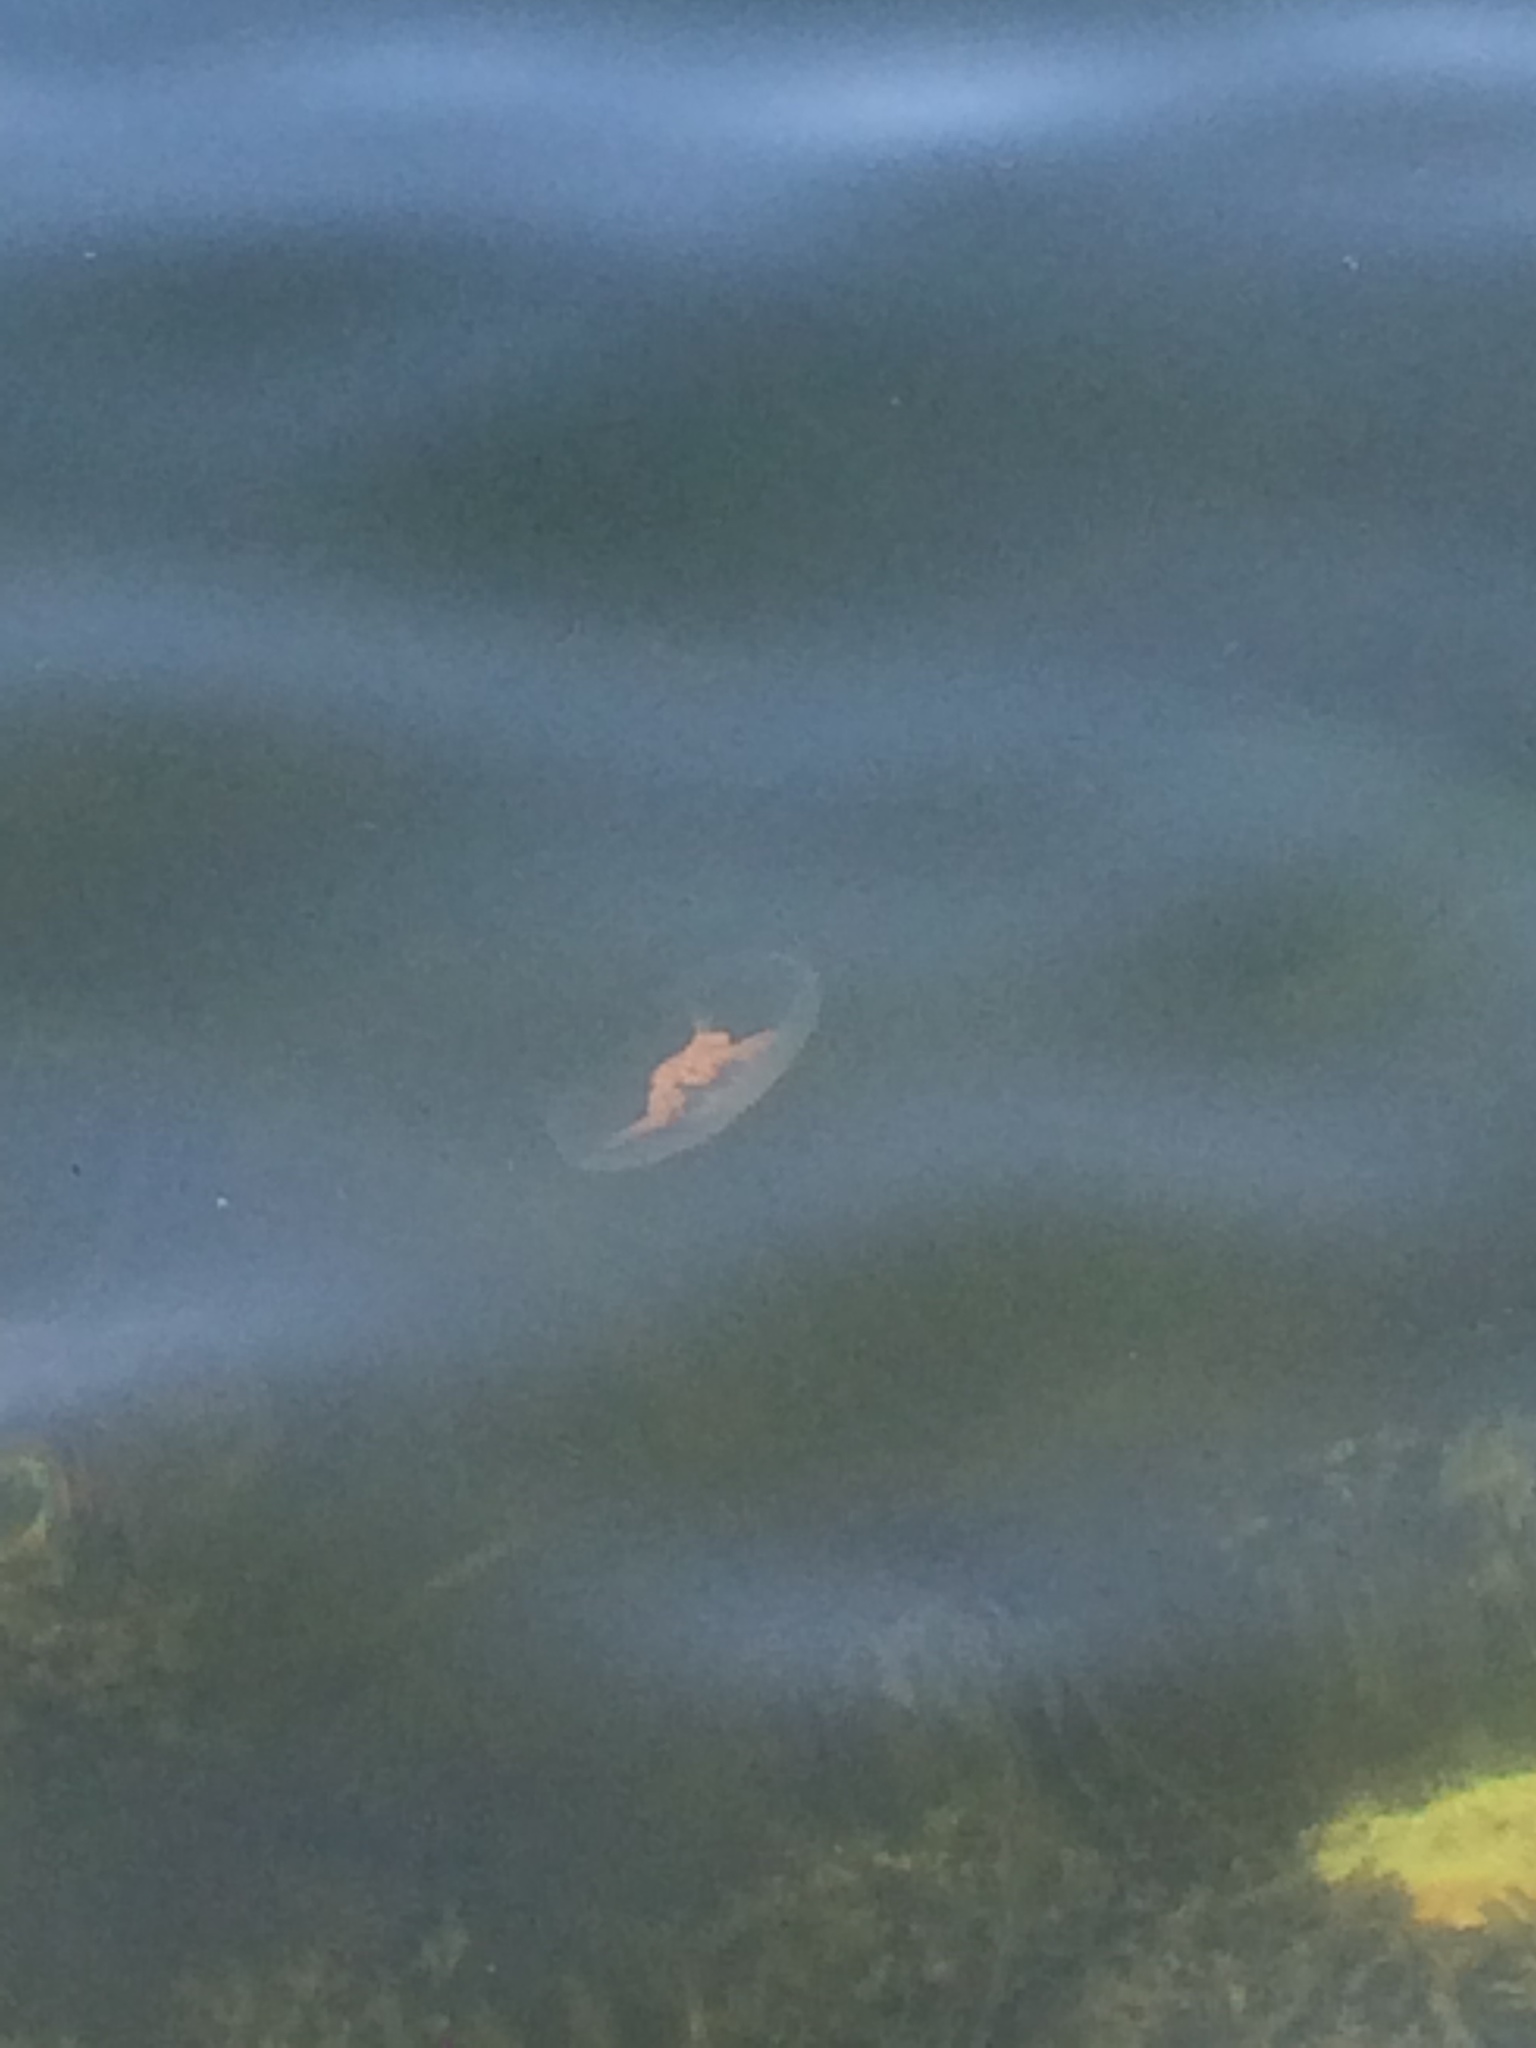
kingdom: Animalia
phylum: Cnidaria
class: Scyphozoa
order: Semaeostomeae
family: Ulmaridae
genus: Aurelia
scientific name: Aurelia aurita
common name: Moon jellyfish
